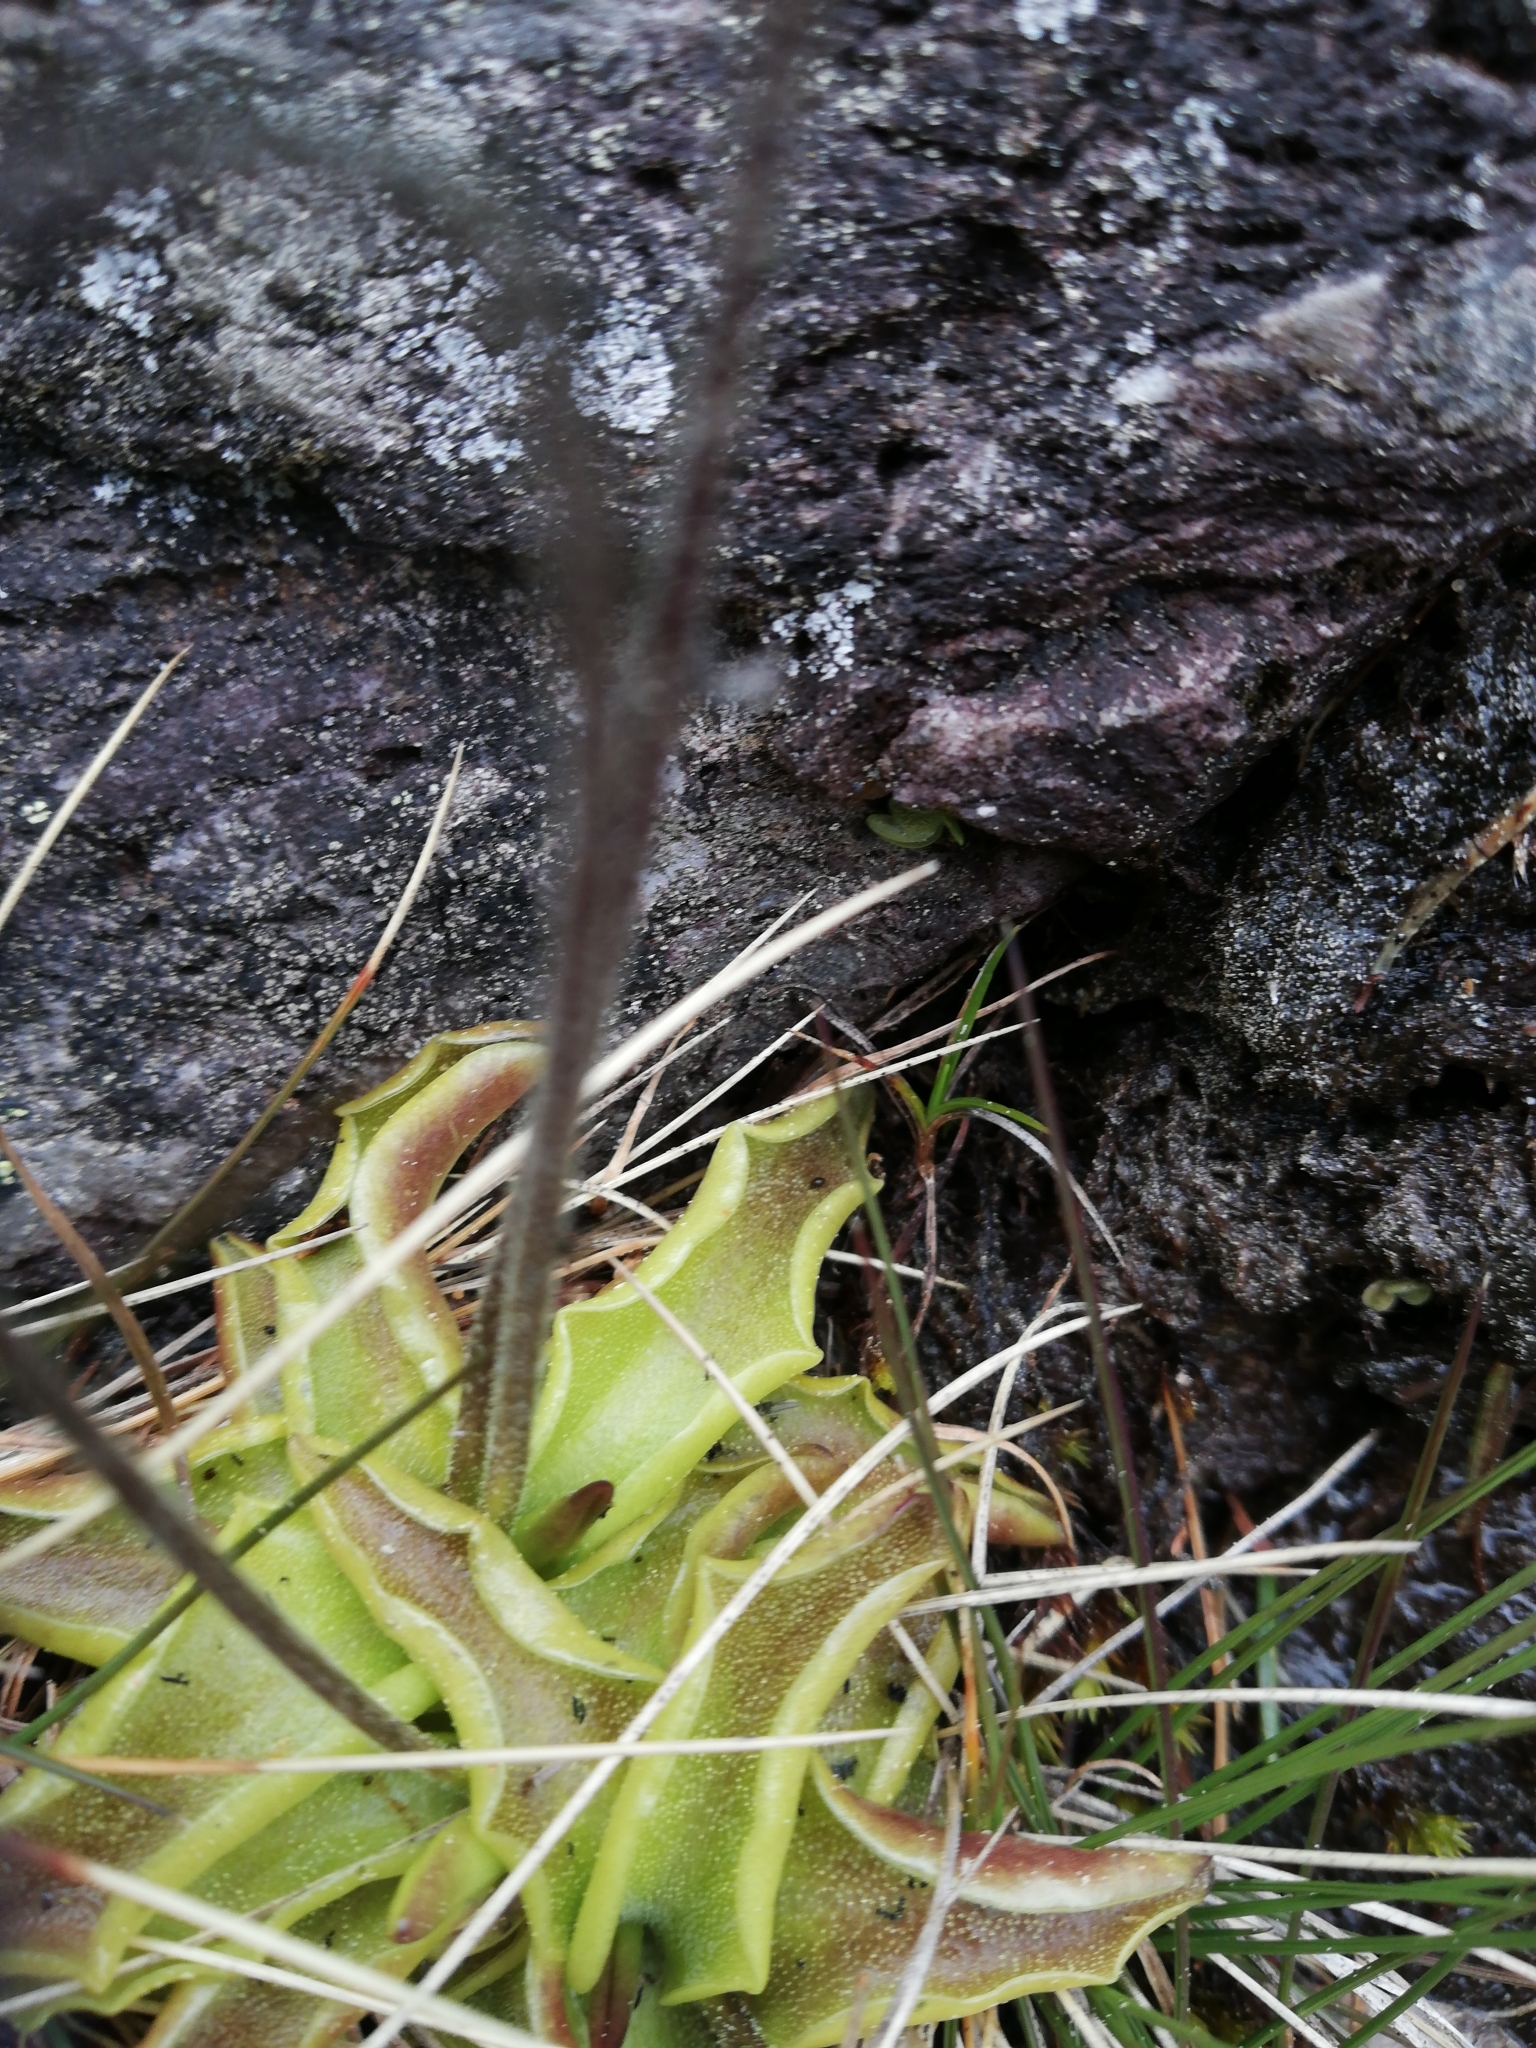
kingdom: Plantae
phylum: Tracheophyta
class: Magnoliopsida
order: Lamiales
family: Lentibulariaceae
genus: Pinguicula
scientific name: Pinguicula leptoceras
